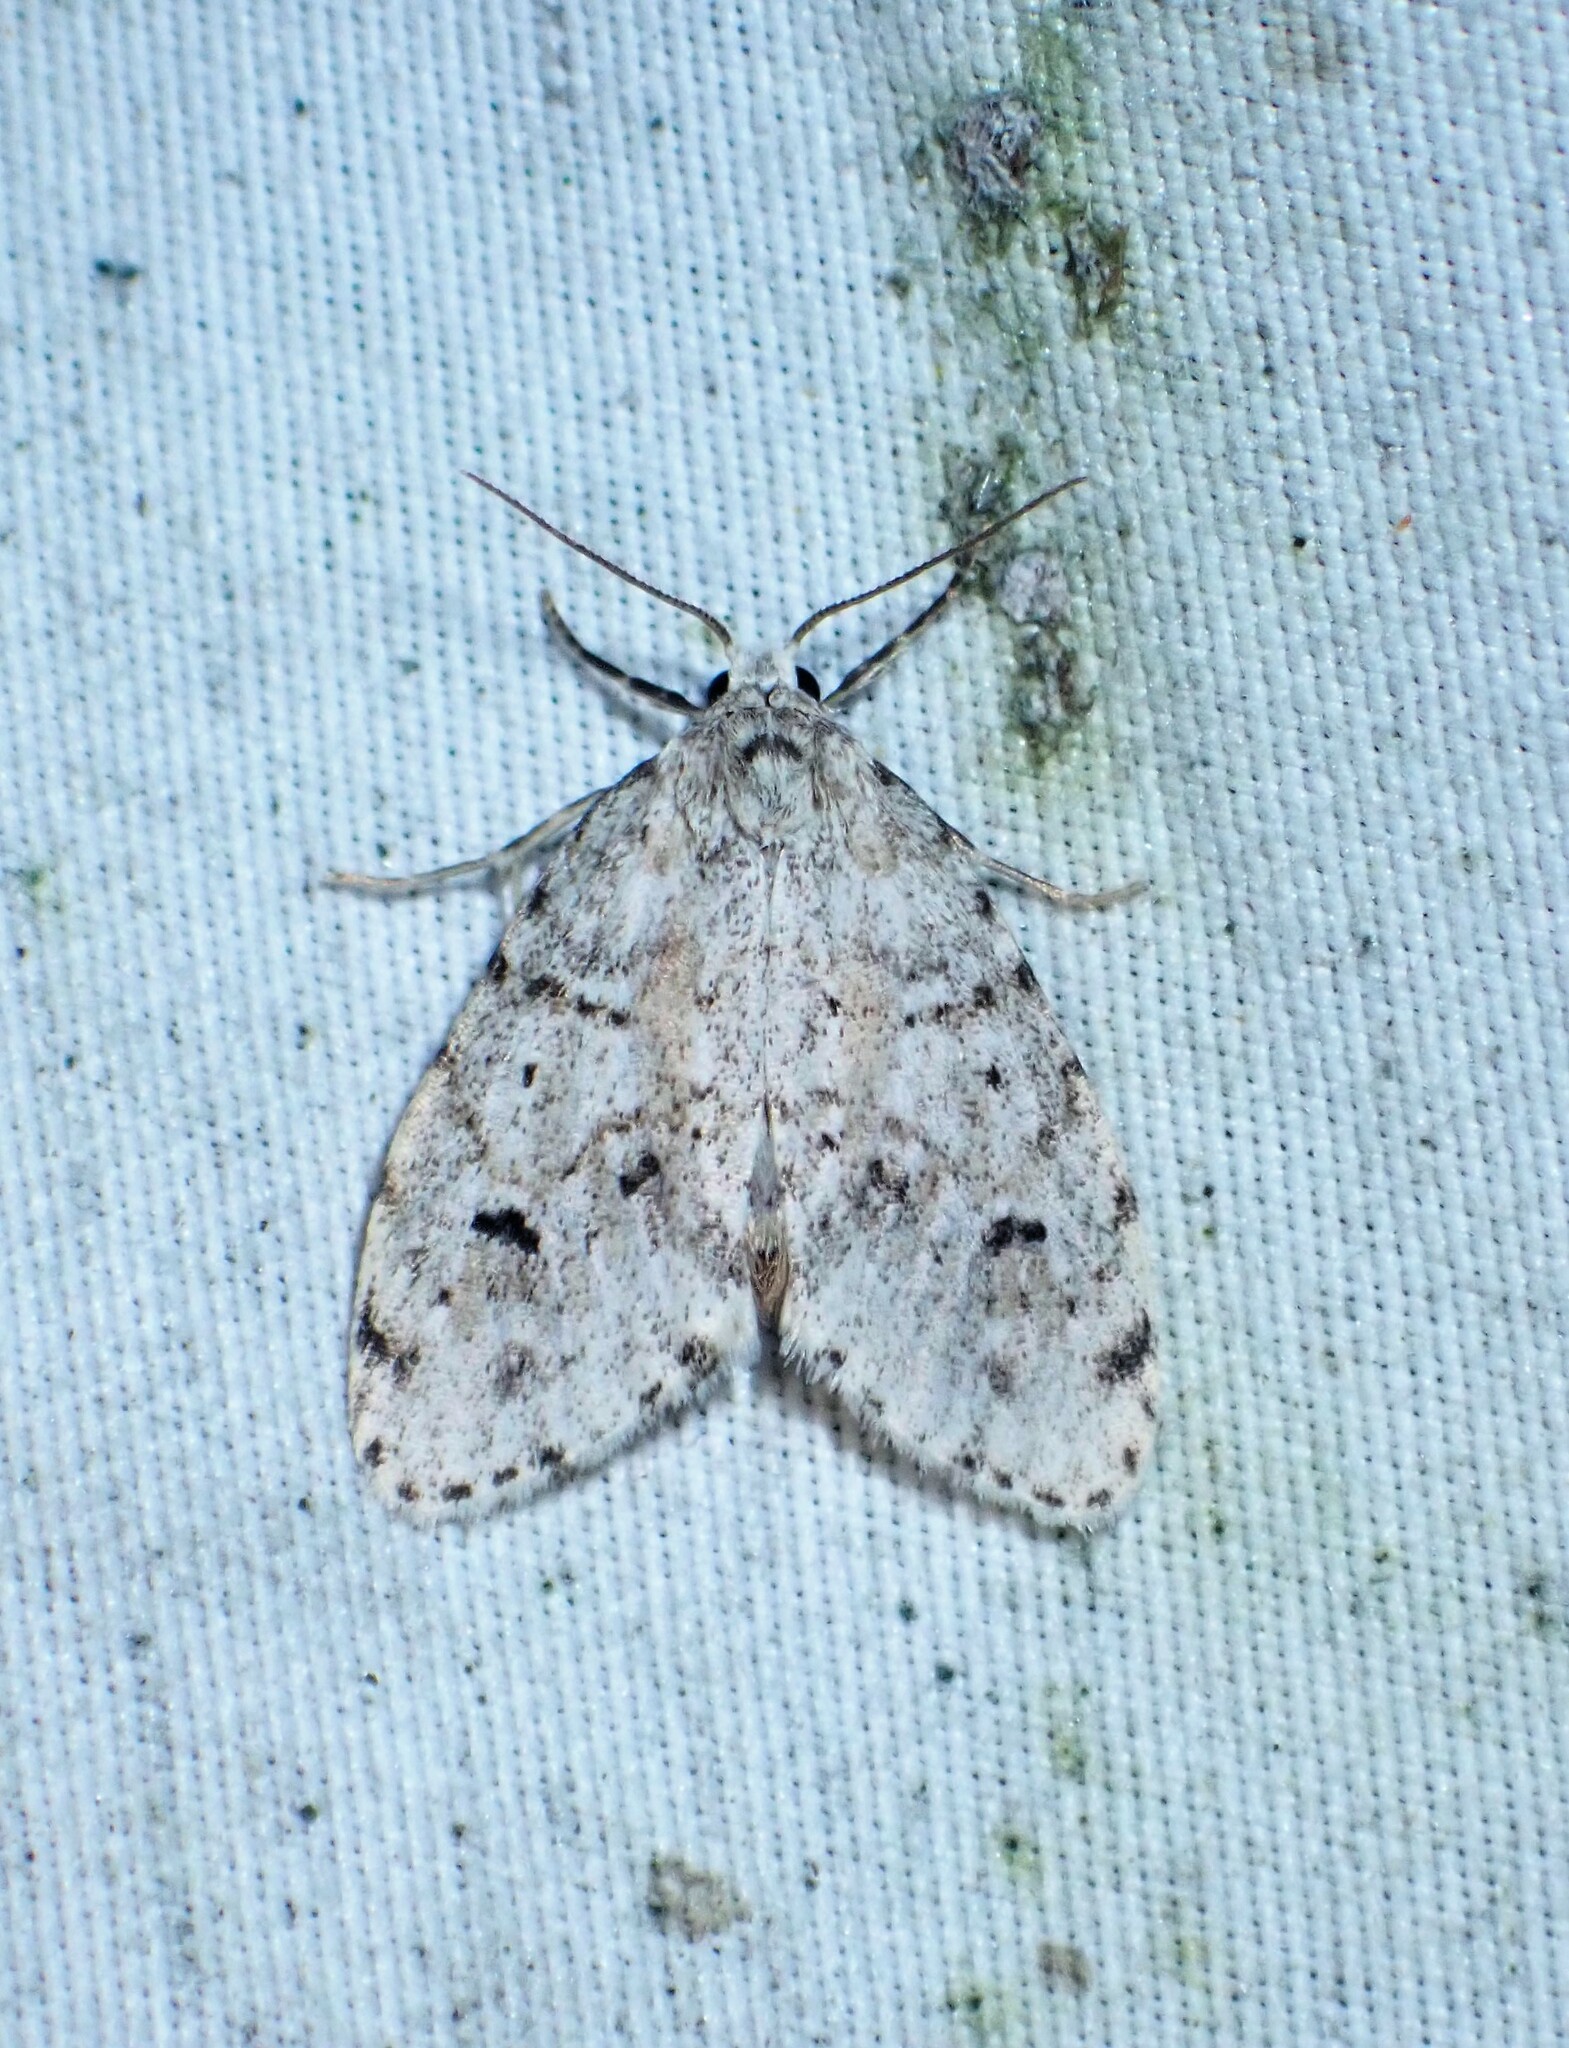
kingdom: Animalia
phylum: Arthropoda
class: Insecta
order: Lepidoptera
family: Erebidae
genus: Clemensia
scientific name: Clemensia umbrata
